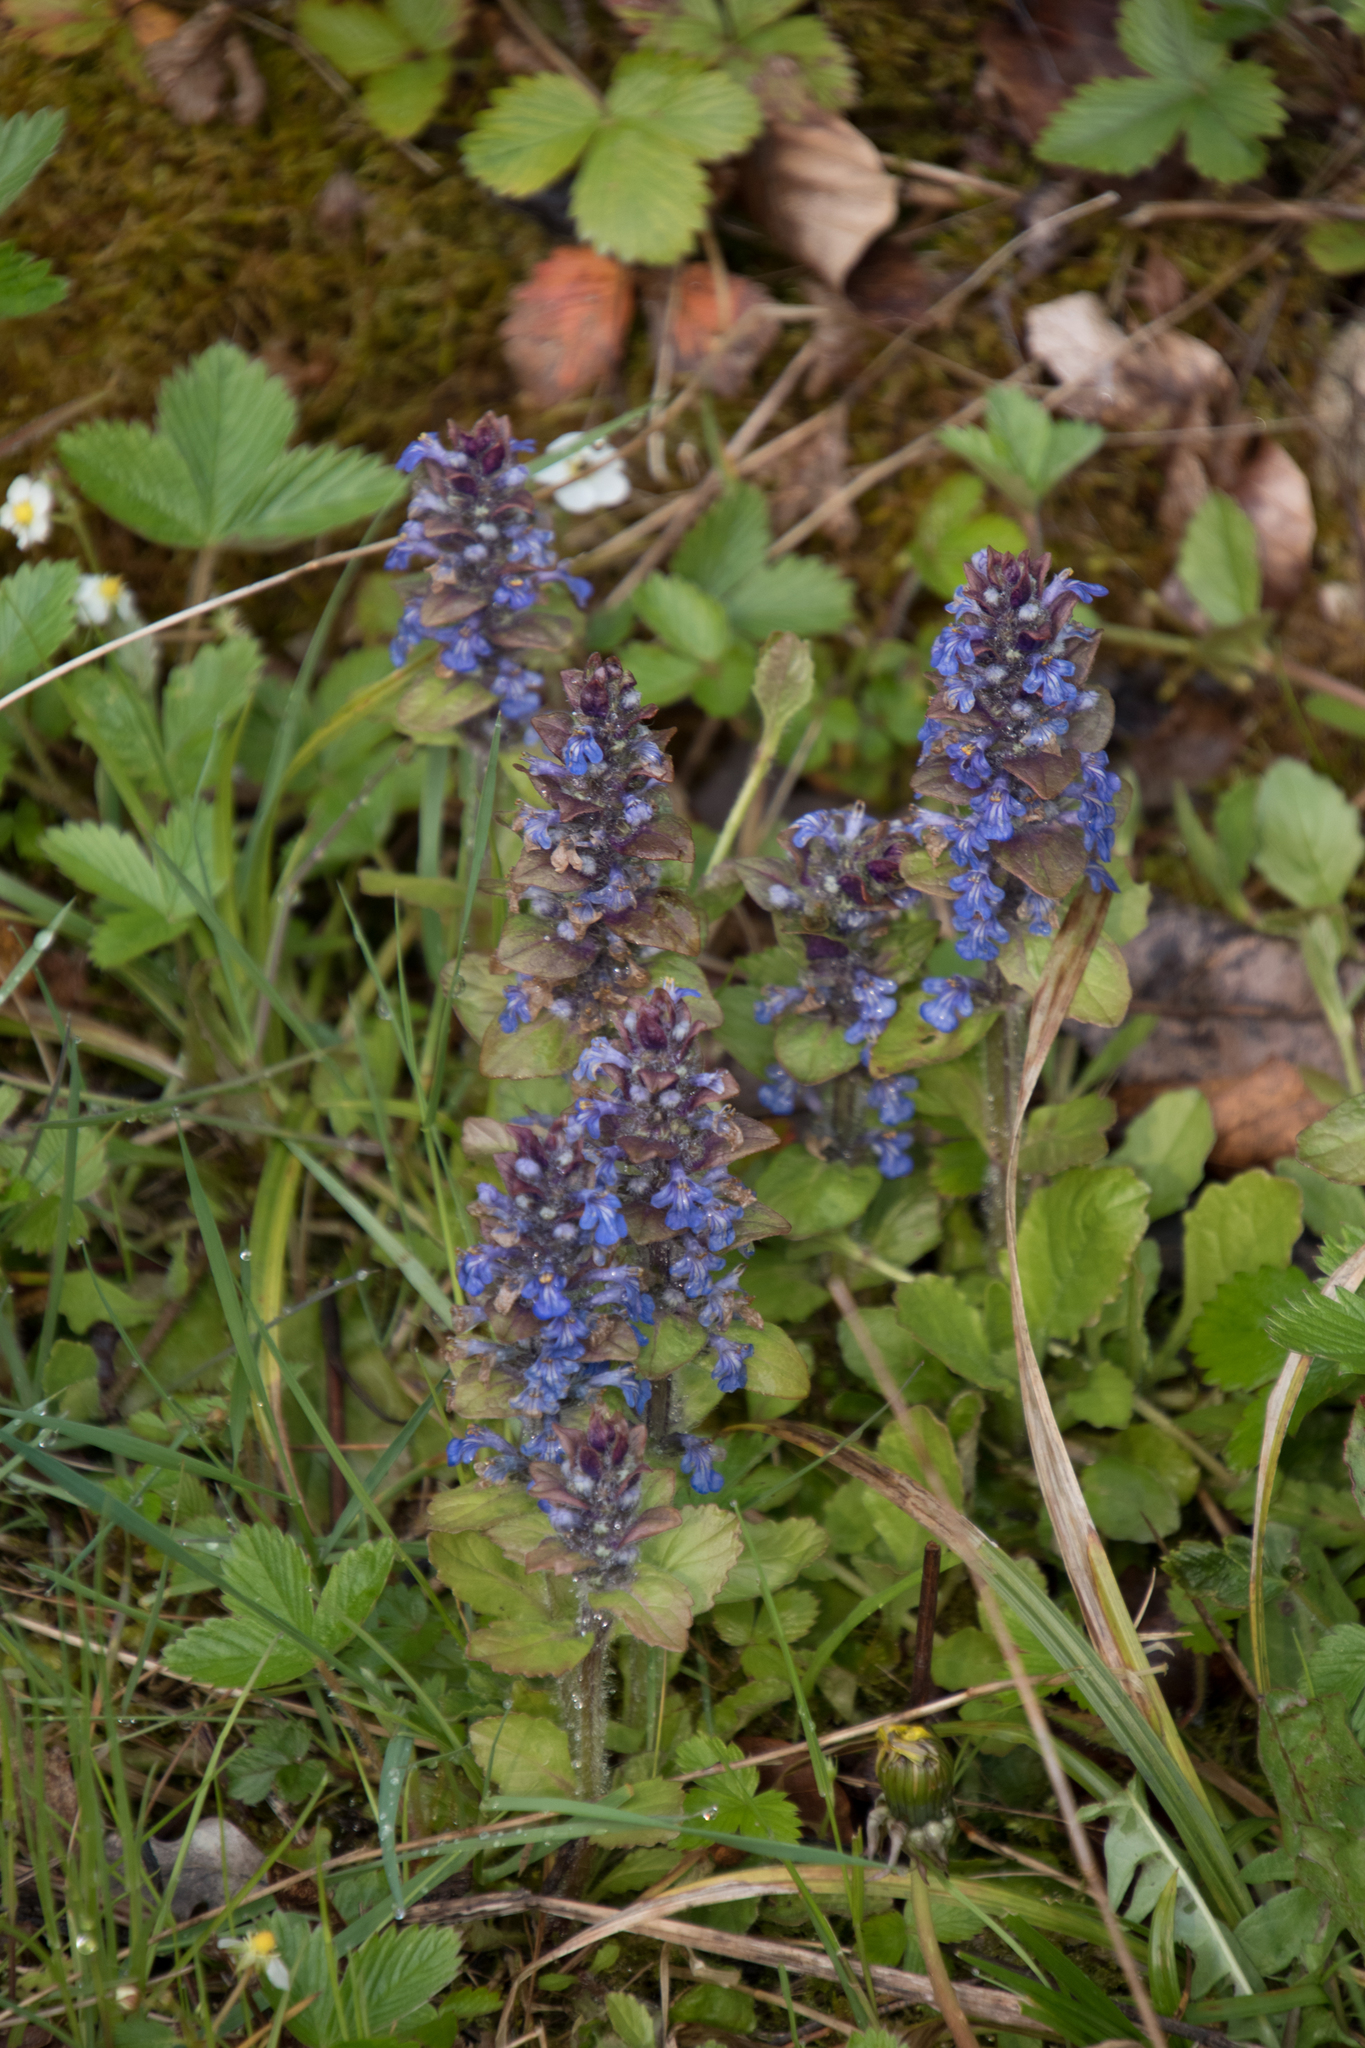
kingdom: Plantae
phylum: Tracheophyta
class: Magnoliopsida
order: Lamiales
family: Lamiaceae
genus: Ajuga
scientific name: Ajuga reptans
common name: Bugle
